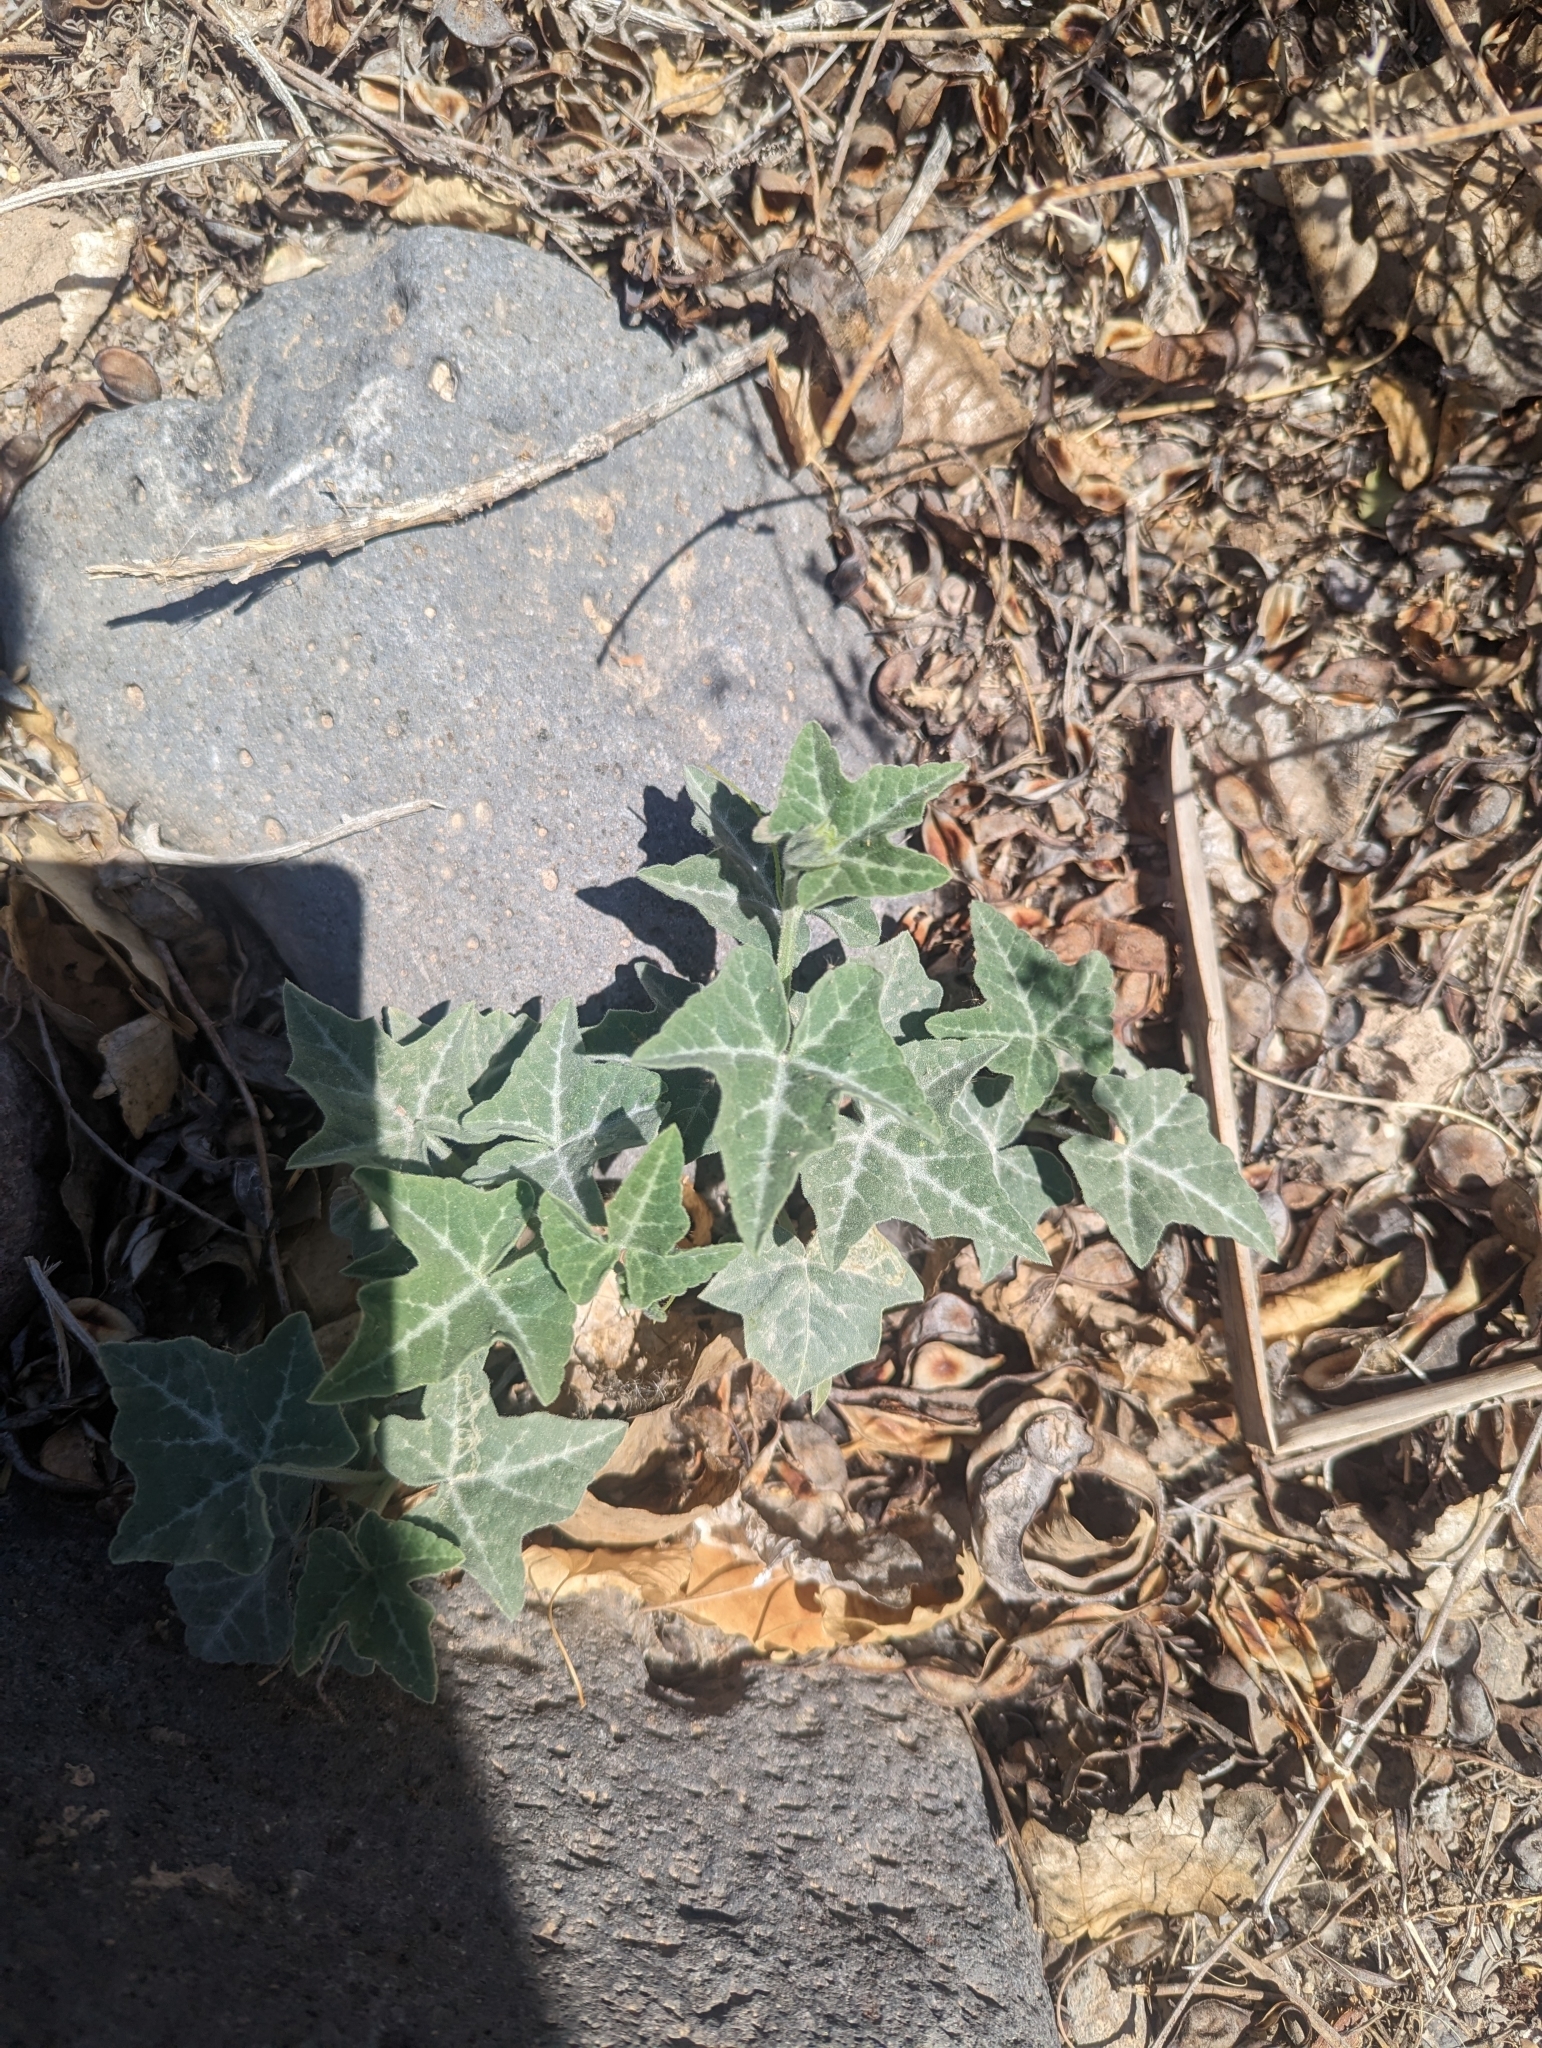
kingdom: Plantae
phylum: Tracheophyta
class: Magnoliopsida
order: Cucurbitales
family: Cucurbitaceae
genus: Cucurbita
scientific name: Cucurbita palmata
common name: Coyote-melon
